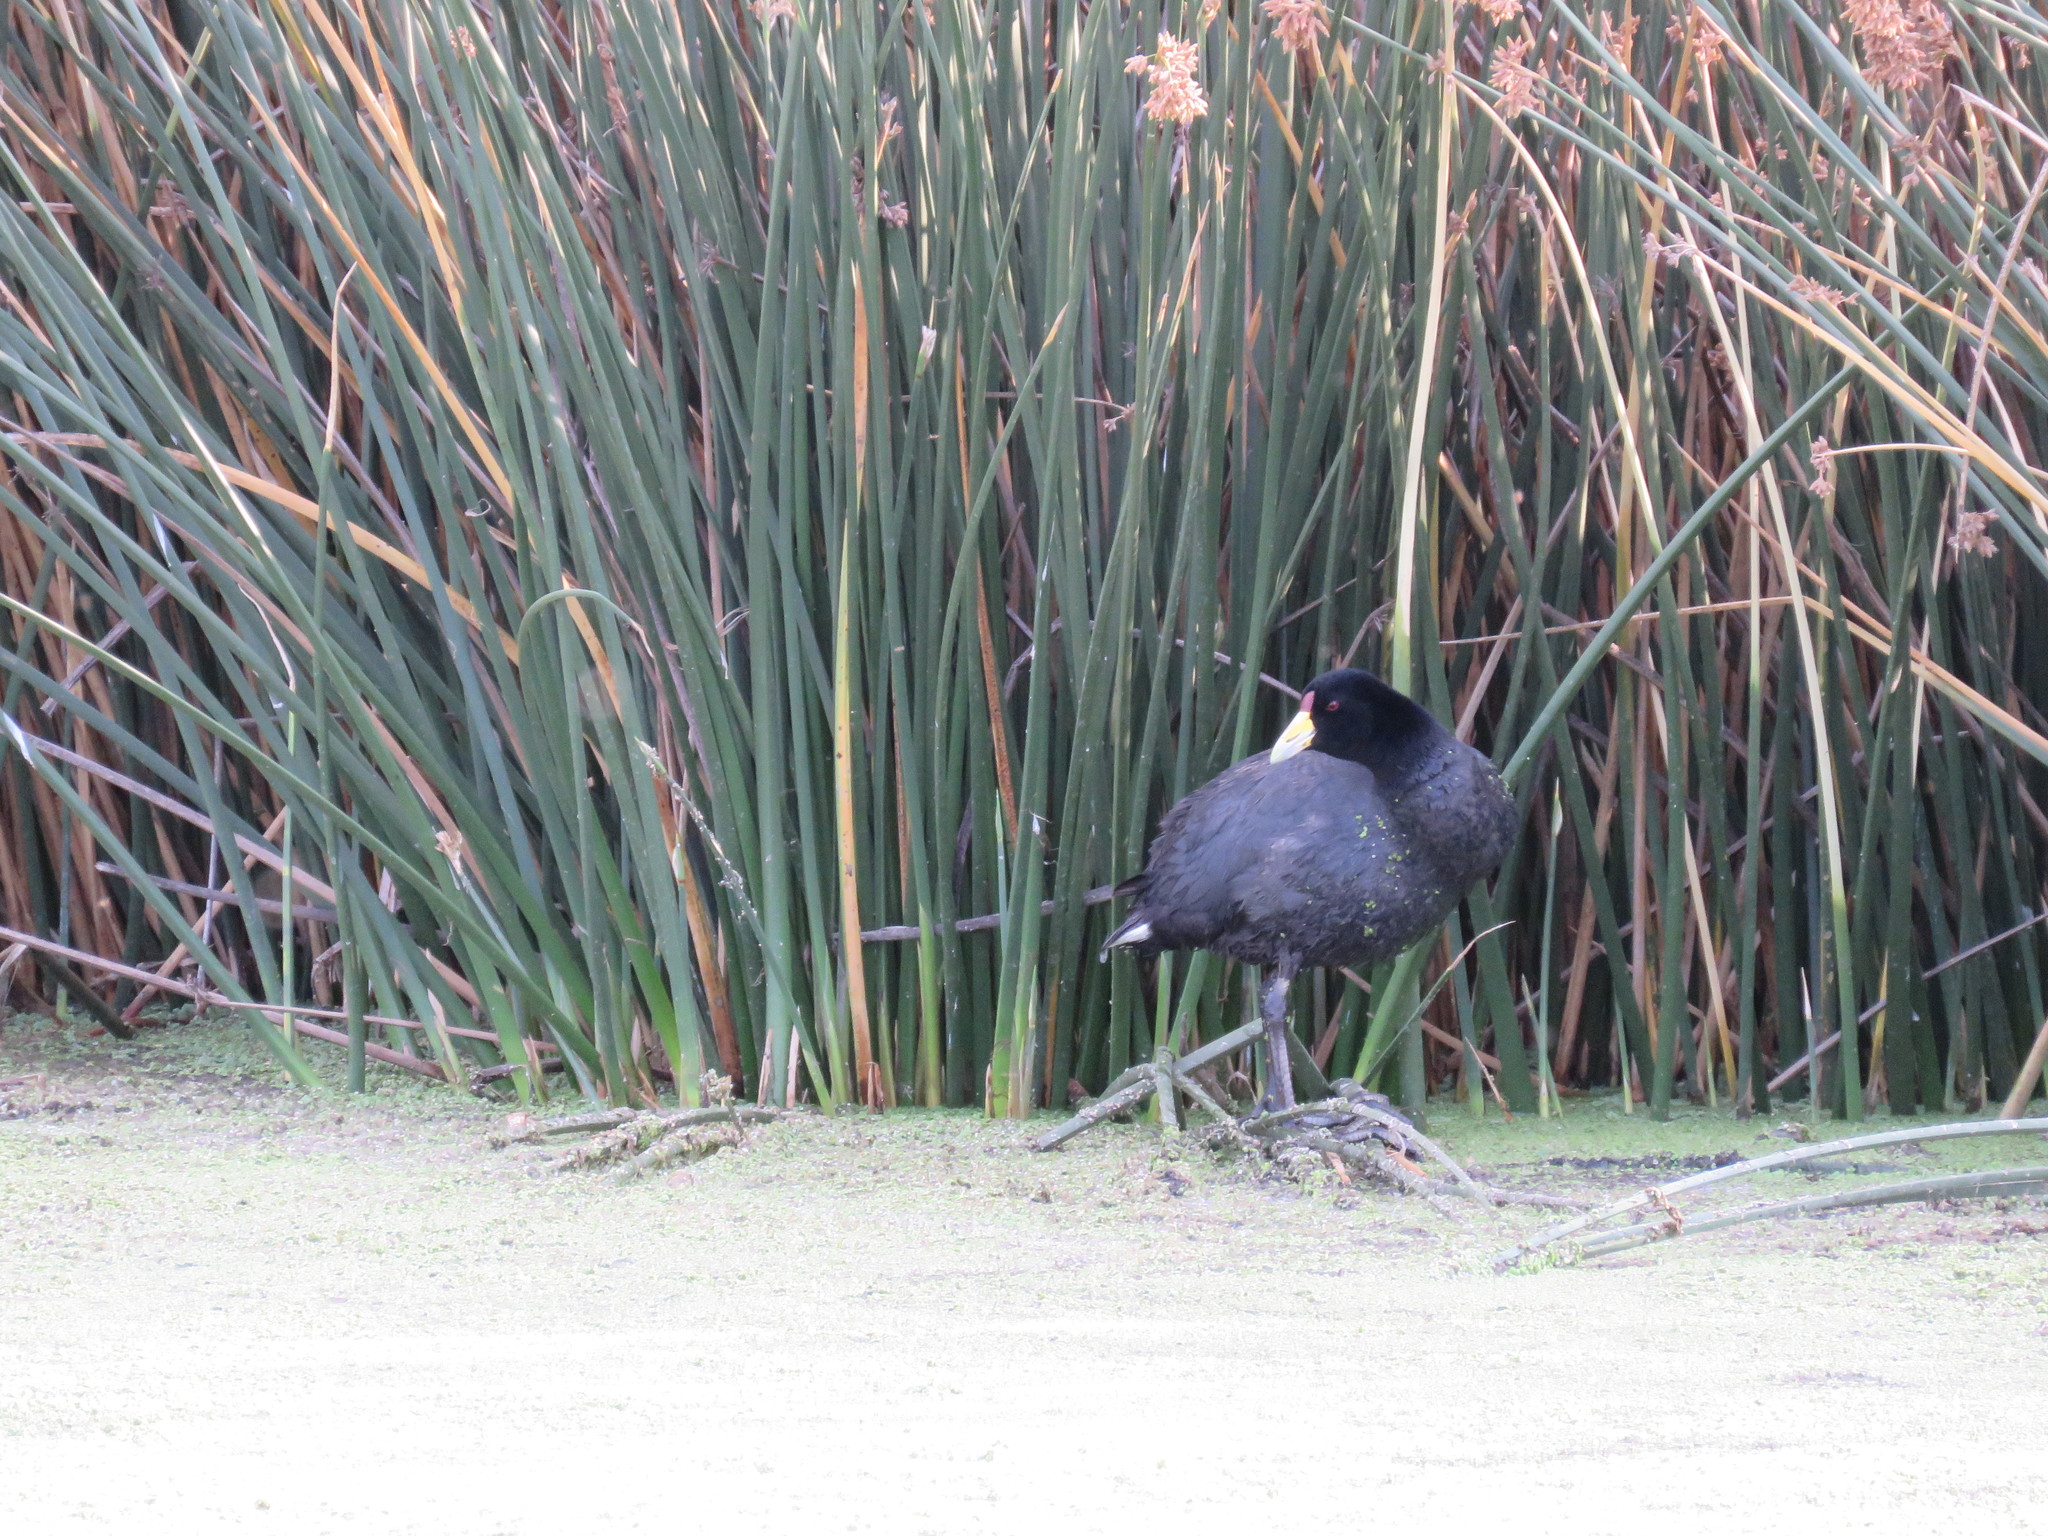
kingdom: Animalia
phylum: Chordata
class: Aves
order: Gruiformes
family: Rallidae
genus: Fulica
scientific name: Fulica ardesiaca
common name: Andean coot
